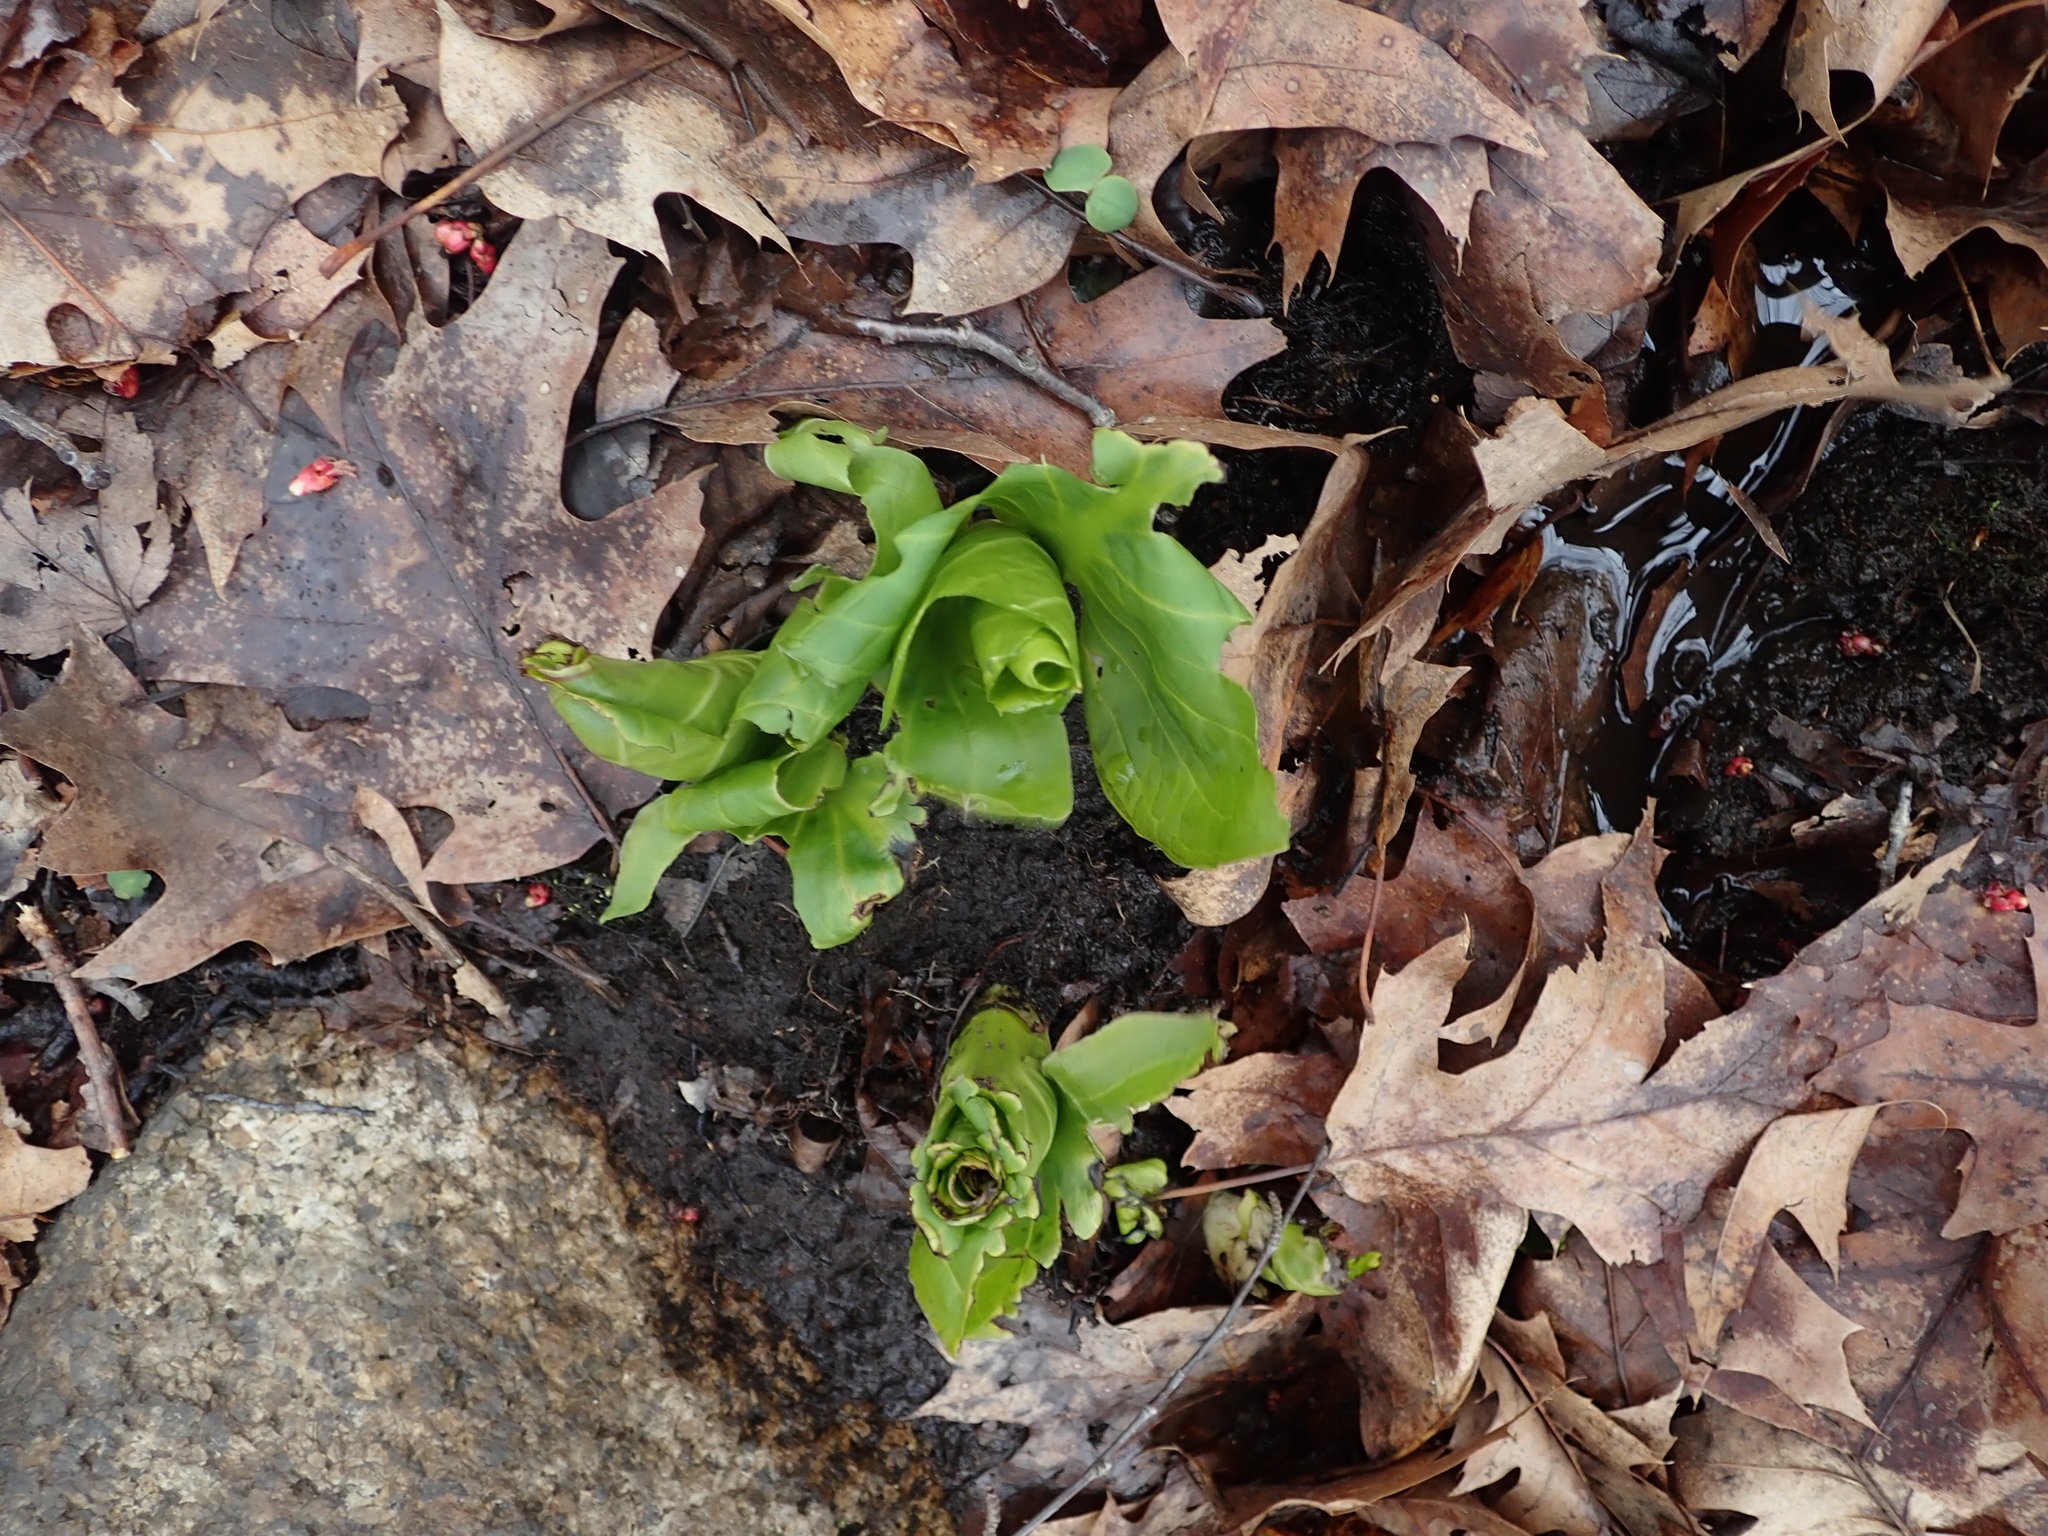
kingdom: Plantae
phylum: Tracheophyta
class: Liliopsida
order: Alismatales
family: Araceae
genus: Symplocarpus
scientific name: Symplocarpus foetidus
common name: Eastern skunk cabbage
